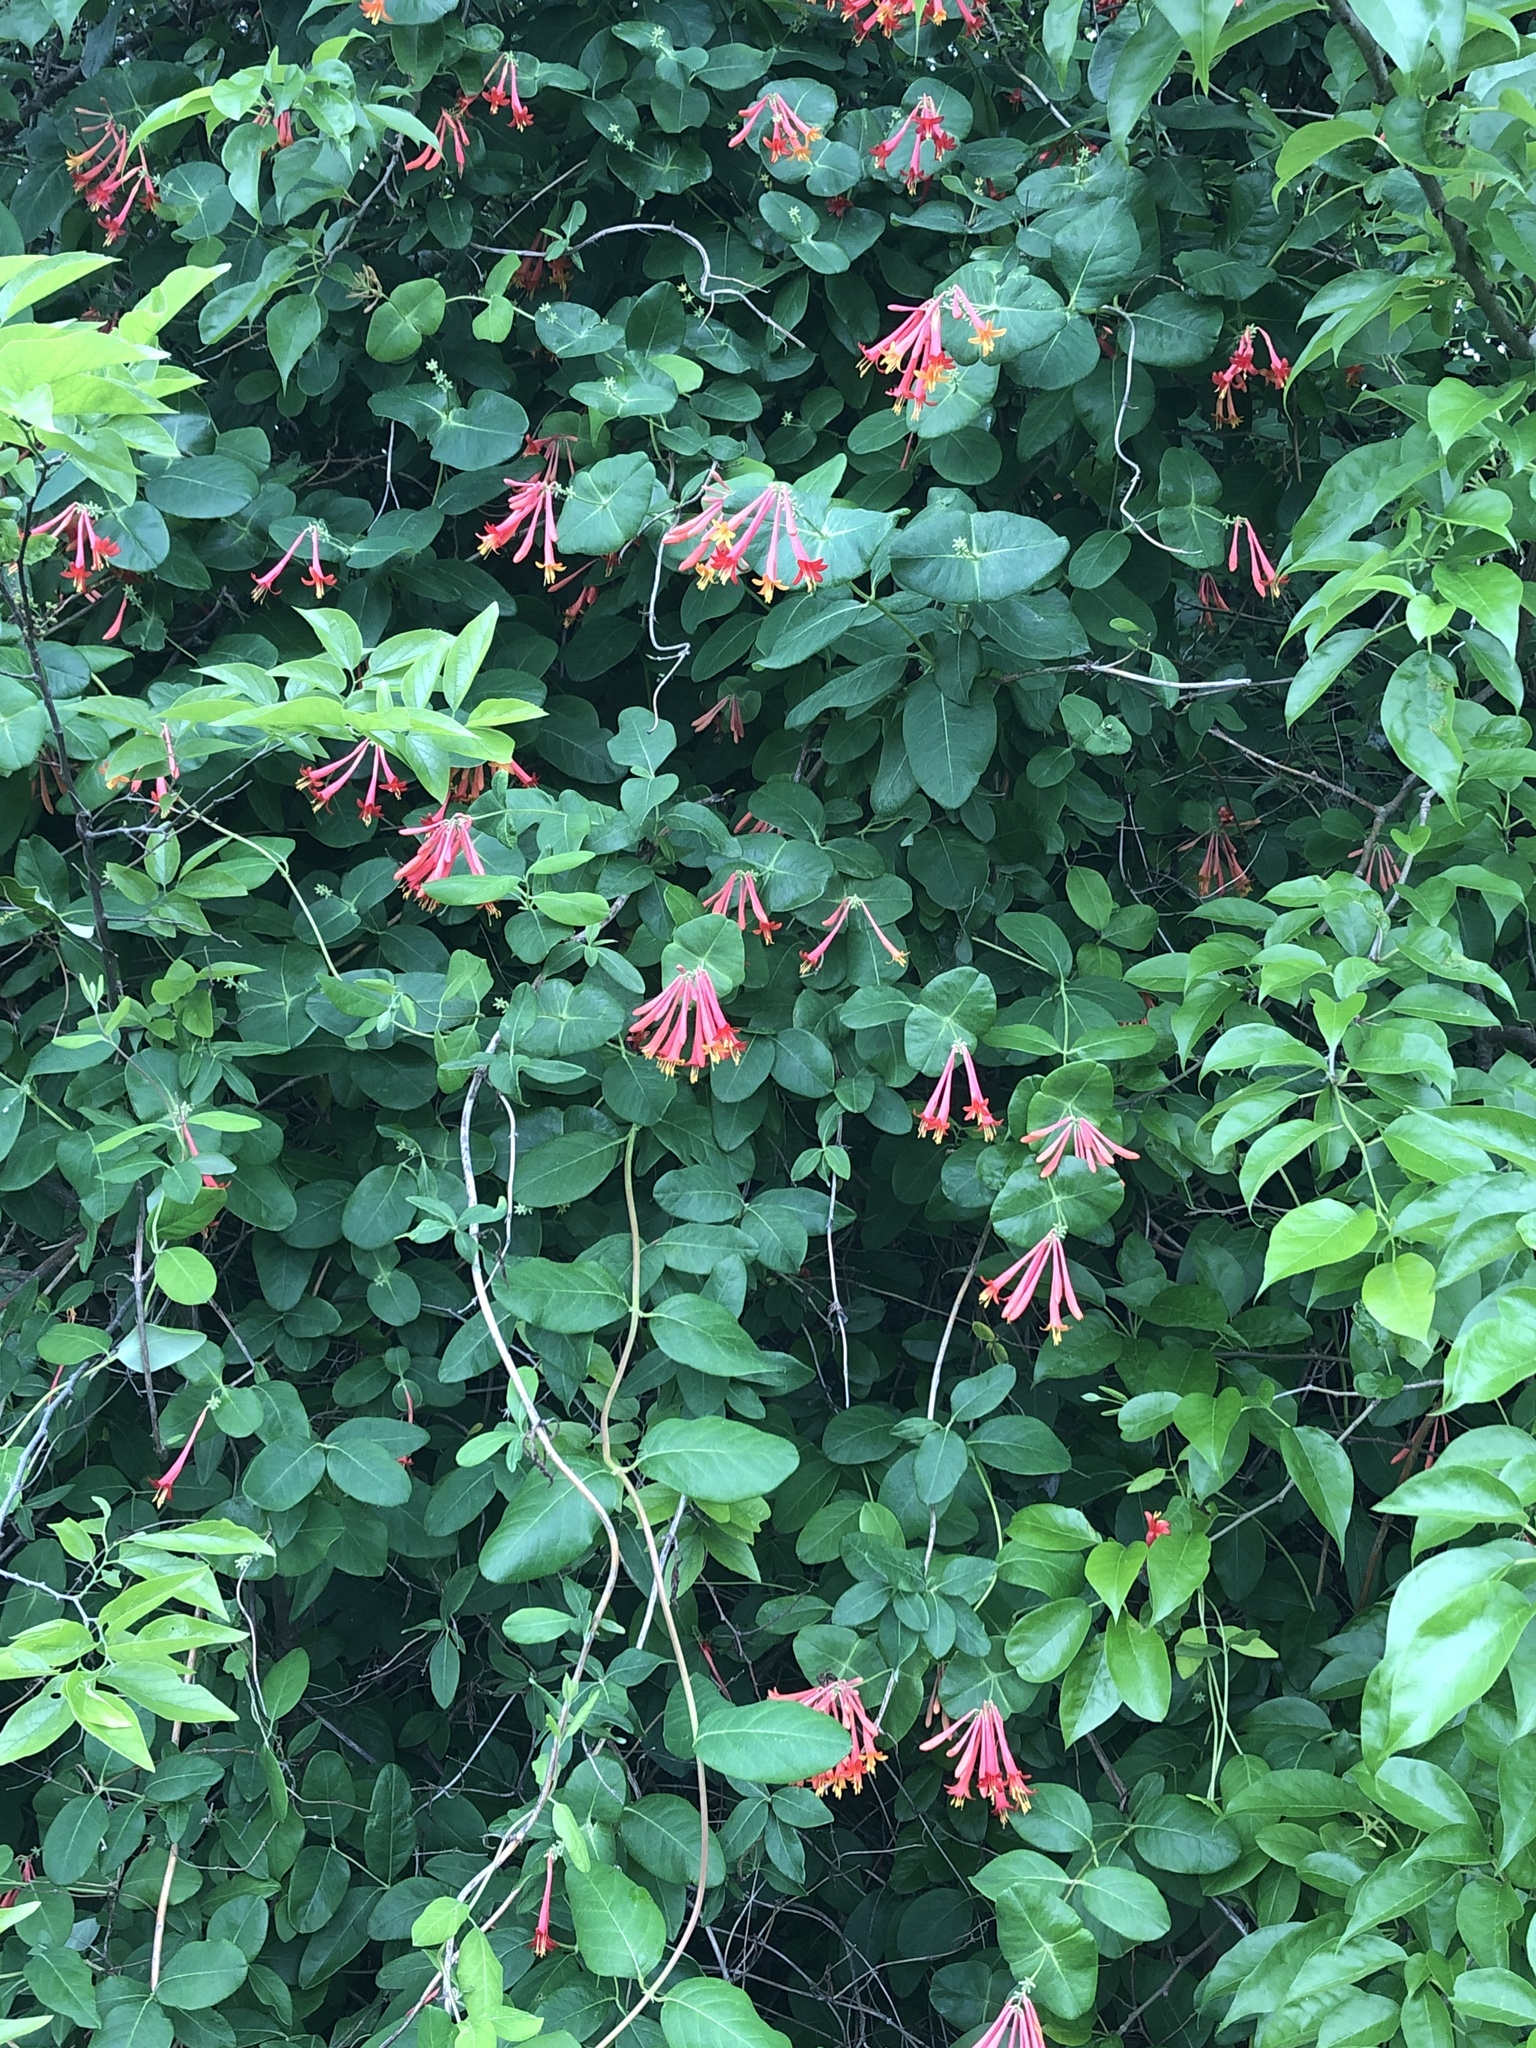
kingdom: Plantae
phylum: Tracheophyta
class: Magnoliopsida
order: Dipsacales
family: Caprifoliaceae
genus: Lonicera
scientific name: Lonicera sempervirens
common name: Coral honeysuckle
